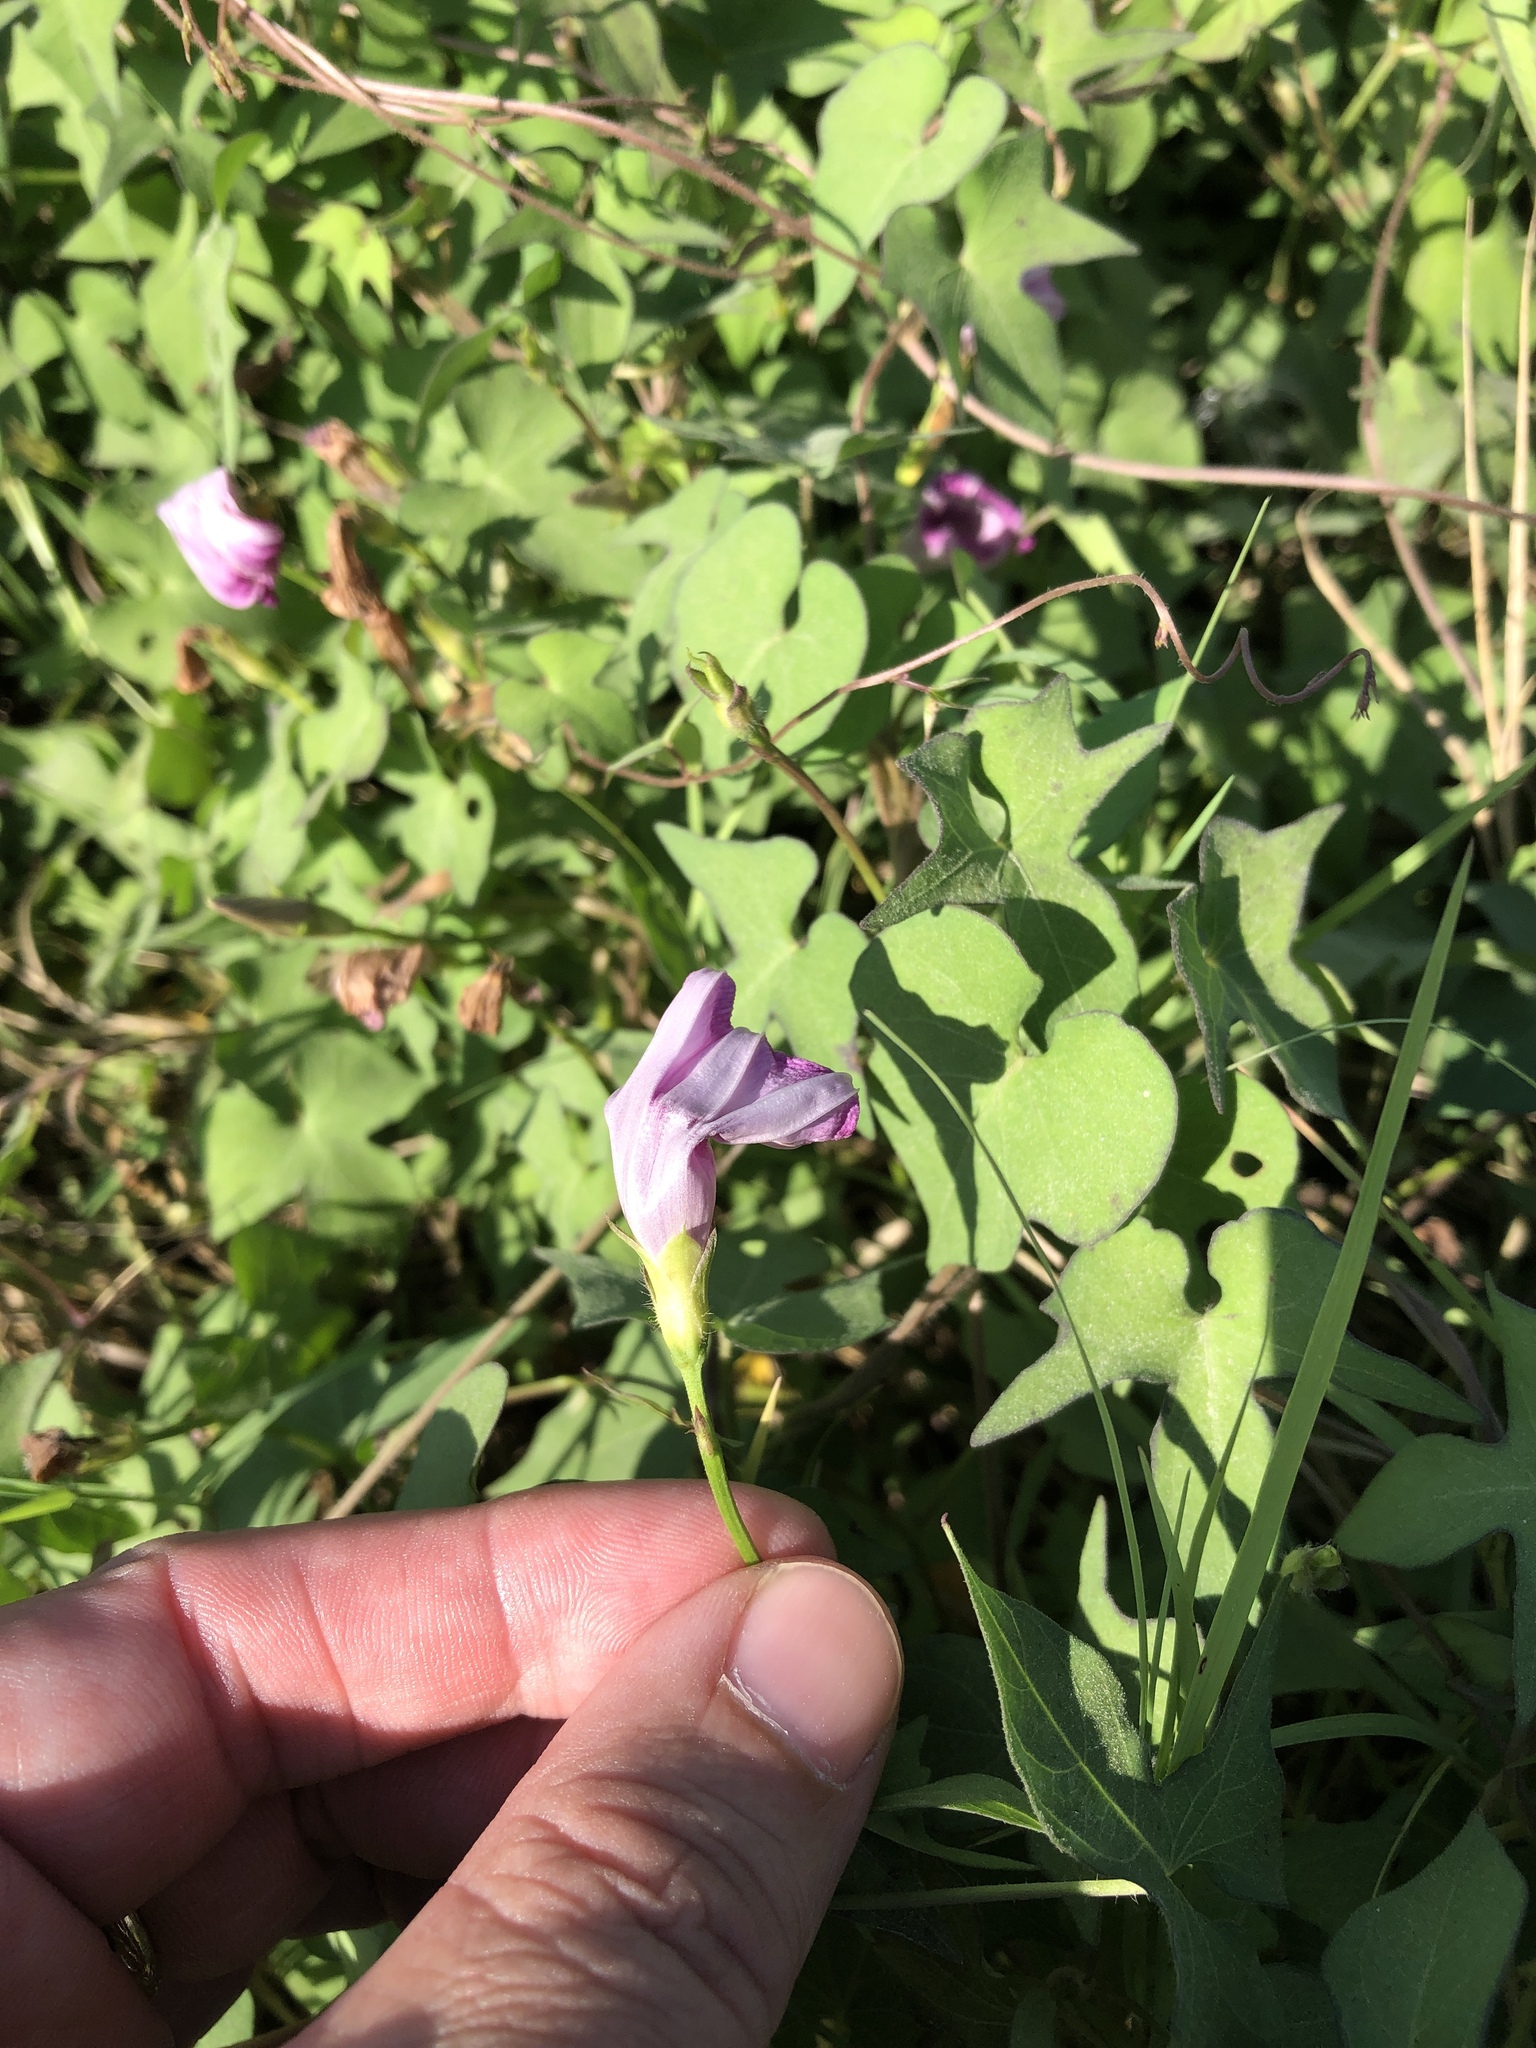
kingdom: Plantae
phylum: Tracheophyta
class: Magnoliopsida
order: Solanales
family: Convolvulaceae
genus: Ipomoea
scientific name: Ipomoea cordatotriloba
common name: Cotton morning glory
